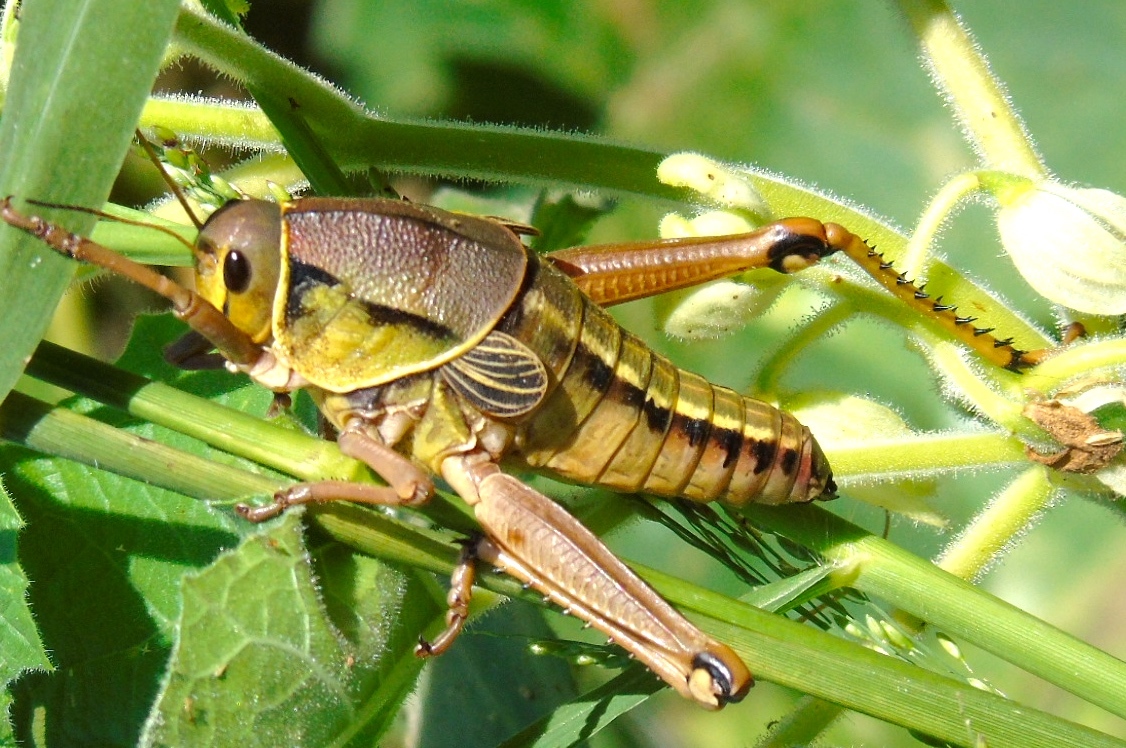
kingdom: Animalia
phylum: Arthropoda
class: Insecta
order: Orthoptera
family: Romaleidae
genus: Brachystola
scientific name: Brachystola
